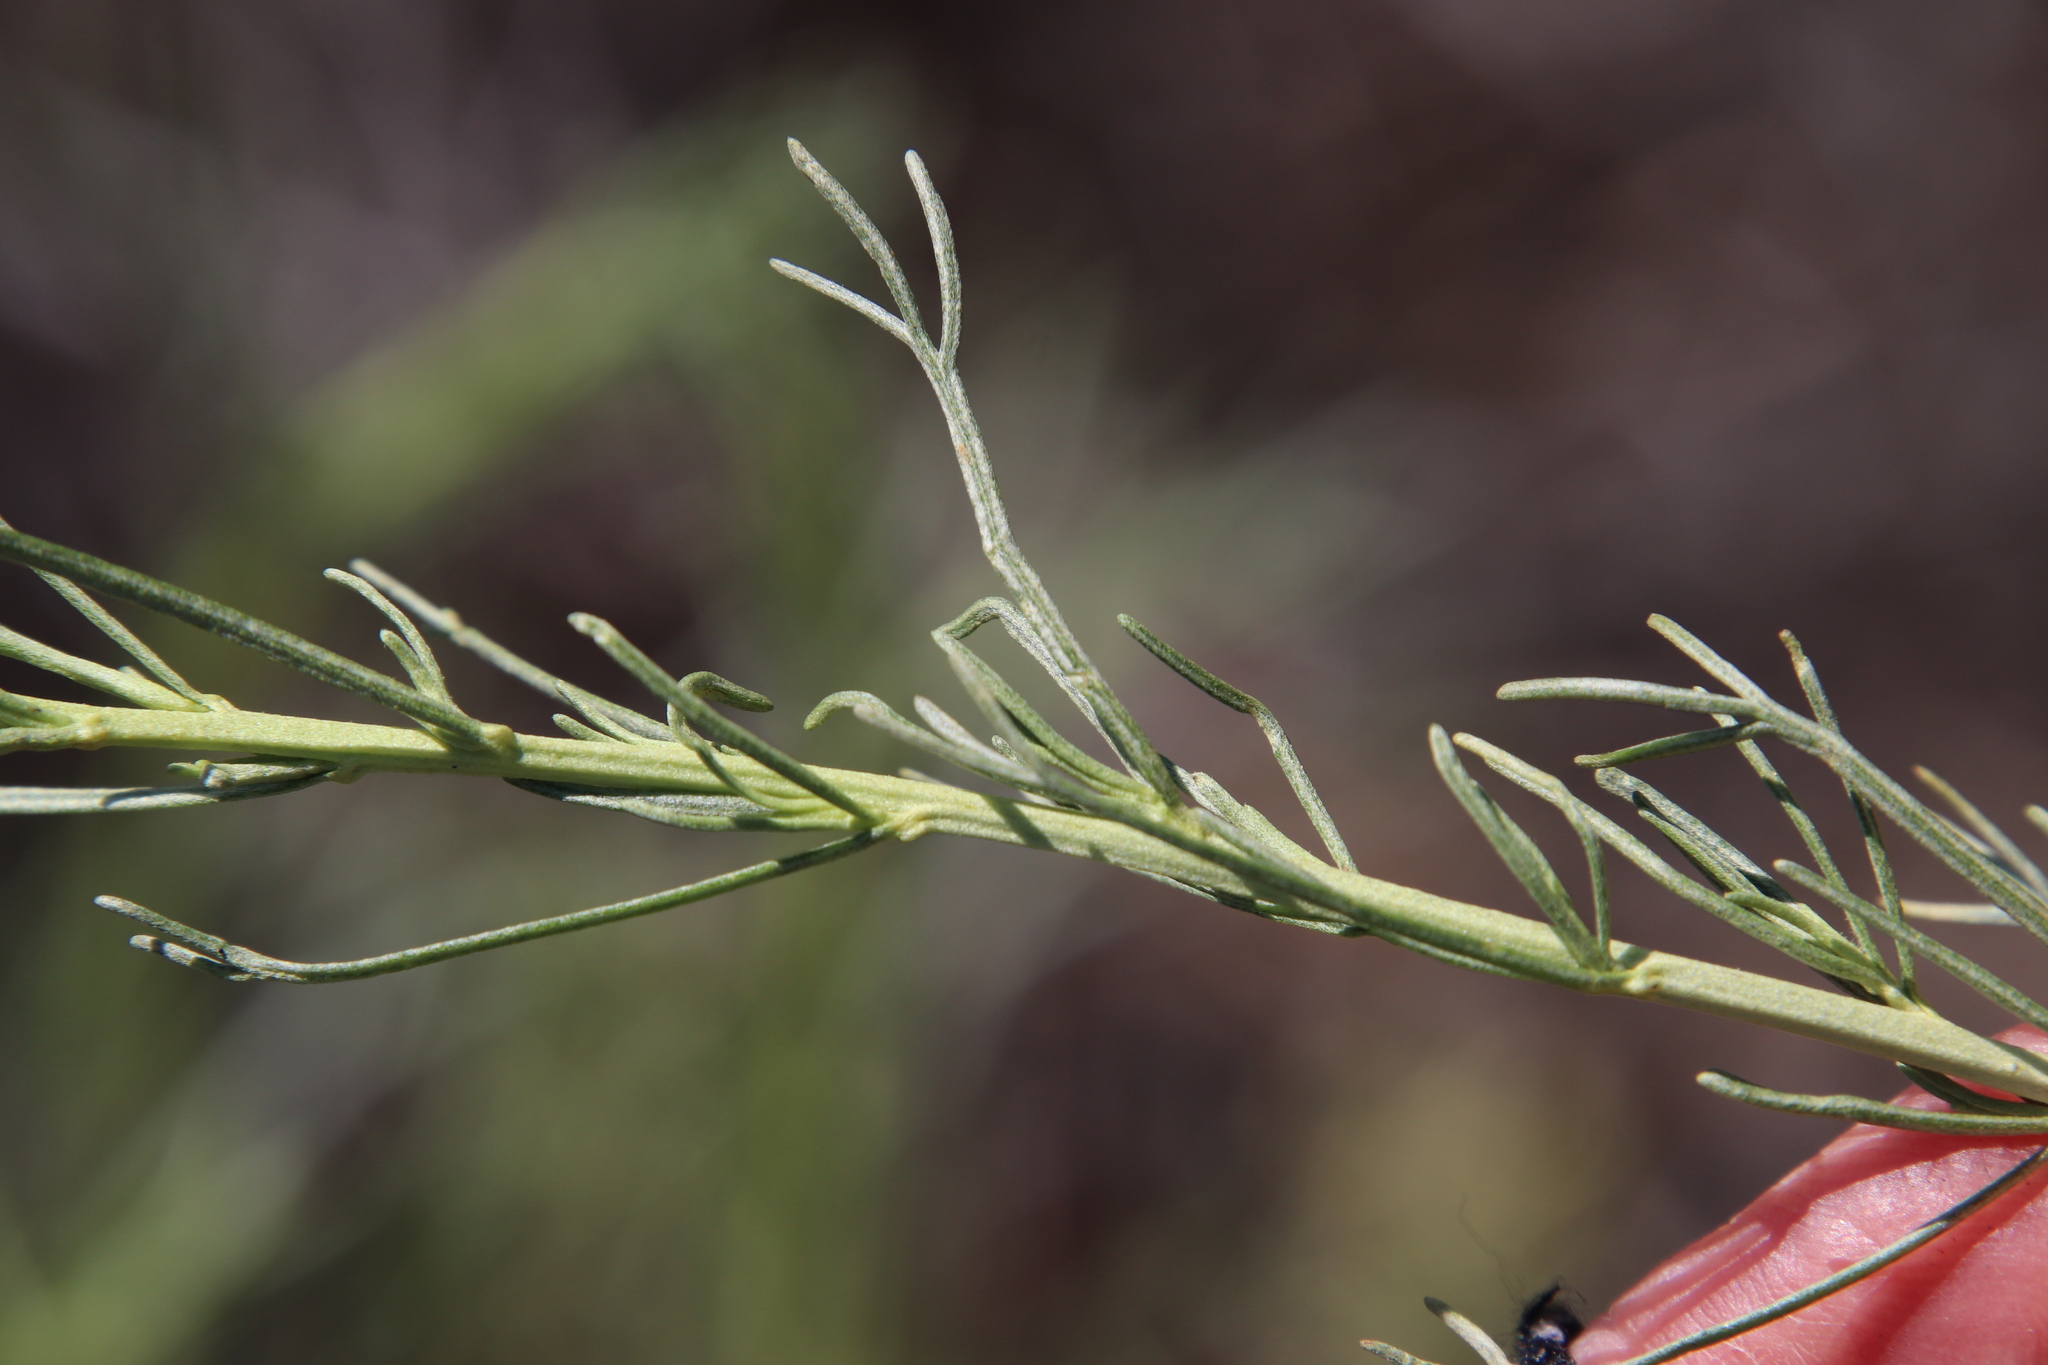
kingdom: Plantae
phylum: Tracheophyta
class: Magnoliopsida
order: Asterales
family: Asteraceae
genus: Artemisia
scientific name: Artemisia californica
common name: California sagebrush
